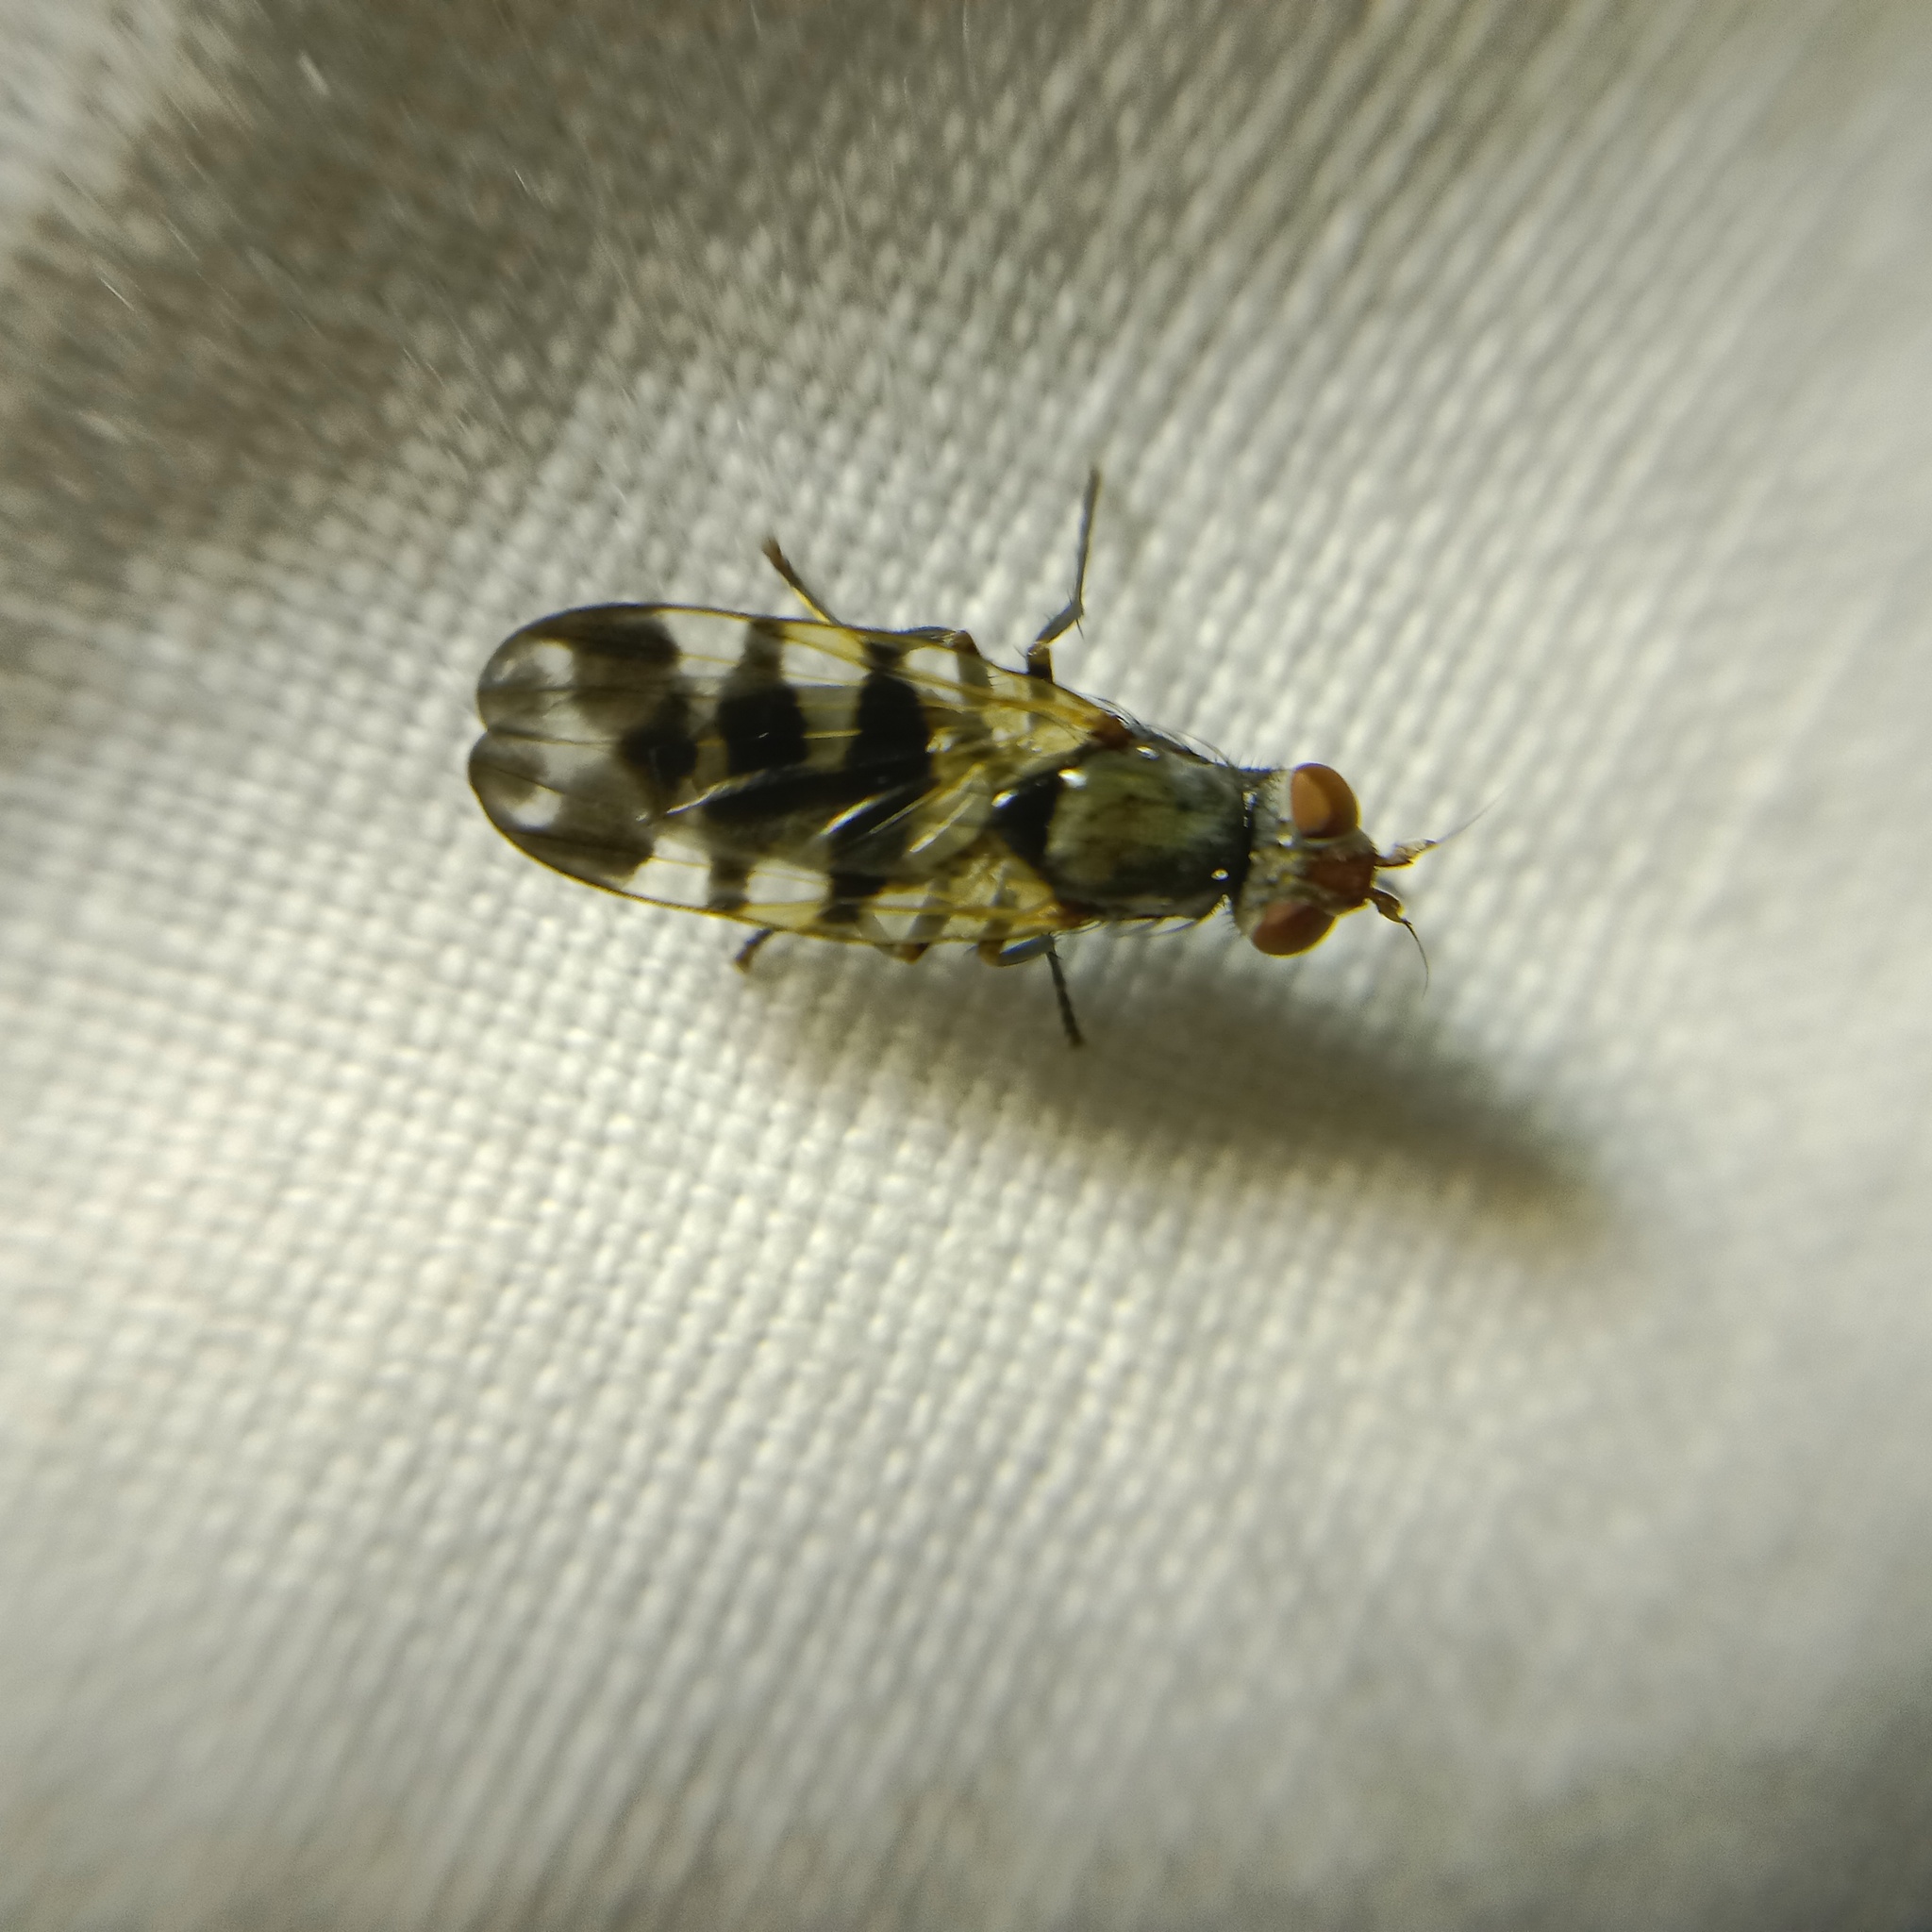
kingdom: Animalia
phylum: Arthropoda
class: Insecta
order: Diptera
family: Ulidiidae
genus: Ceroxys
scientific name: Ceroxys urticae
